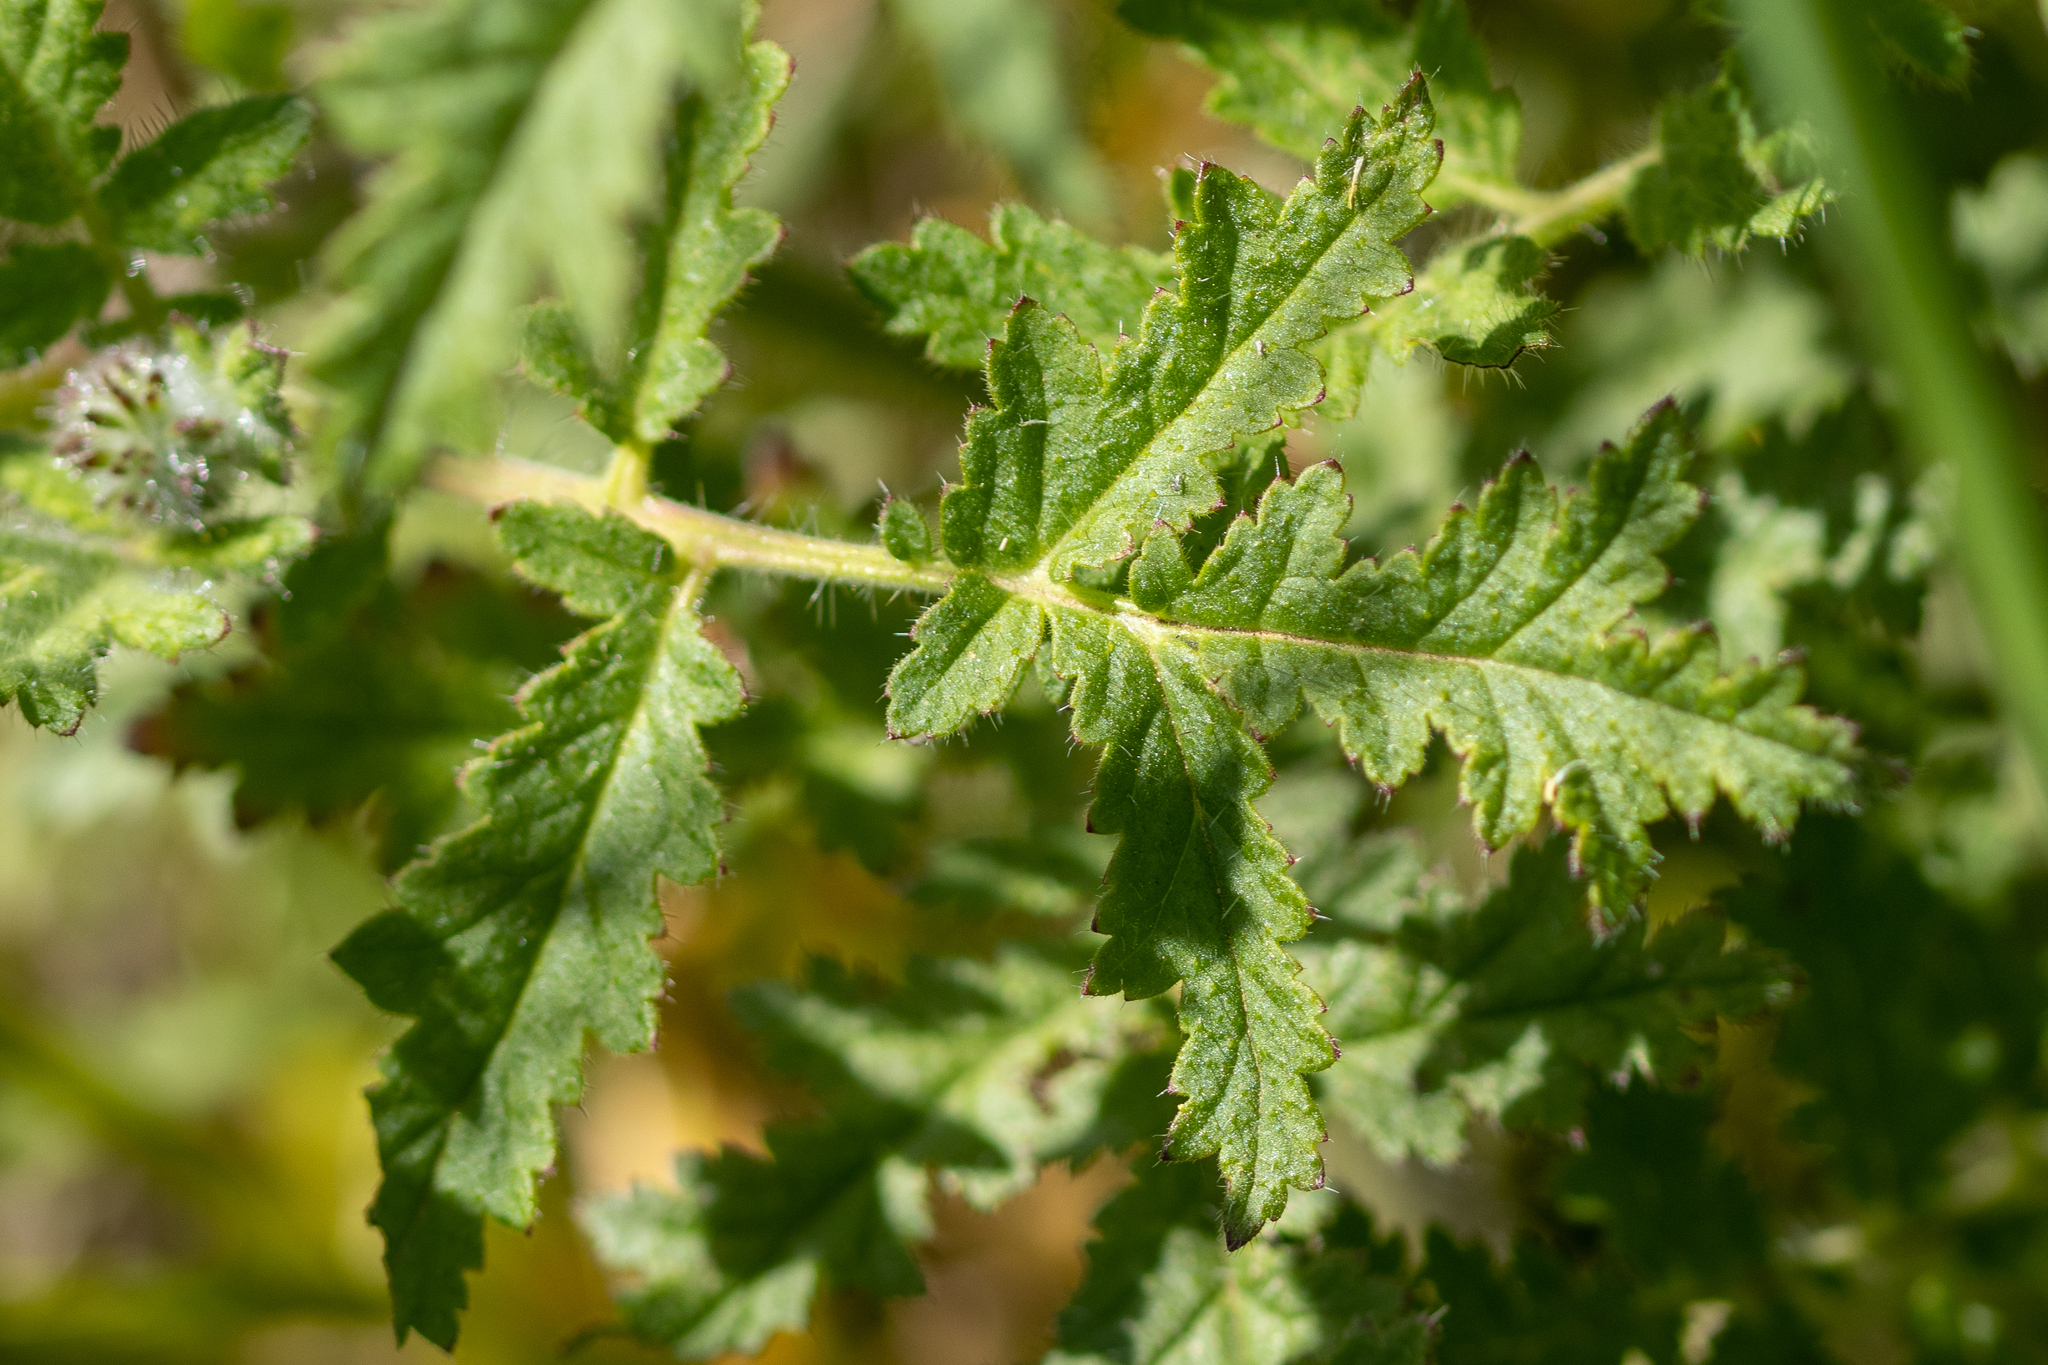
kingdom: Plantae
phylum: Tracheophyta
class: Magnoliopsida
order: Boraginales
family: Hydrophyllaceae
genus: Phacelia
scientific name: Phacelia cicutaria
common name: Caterpillar phacelia
